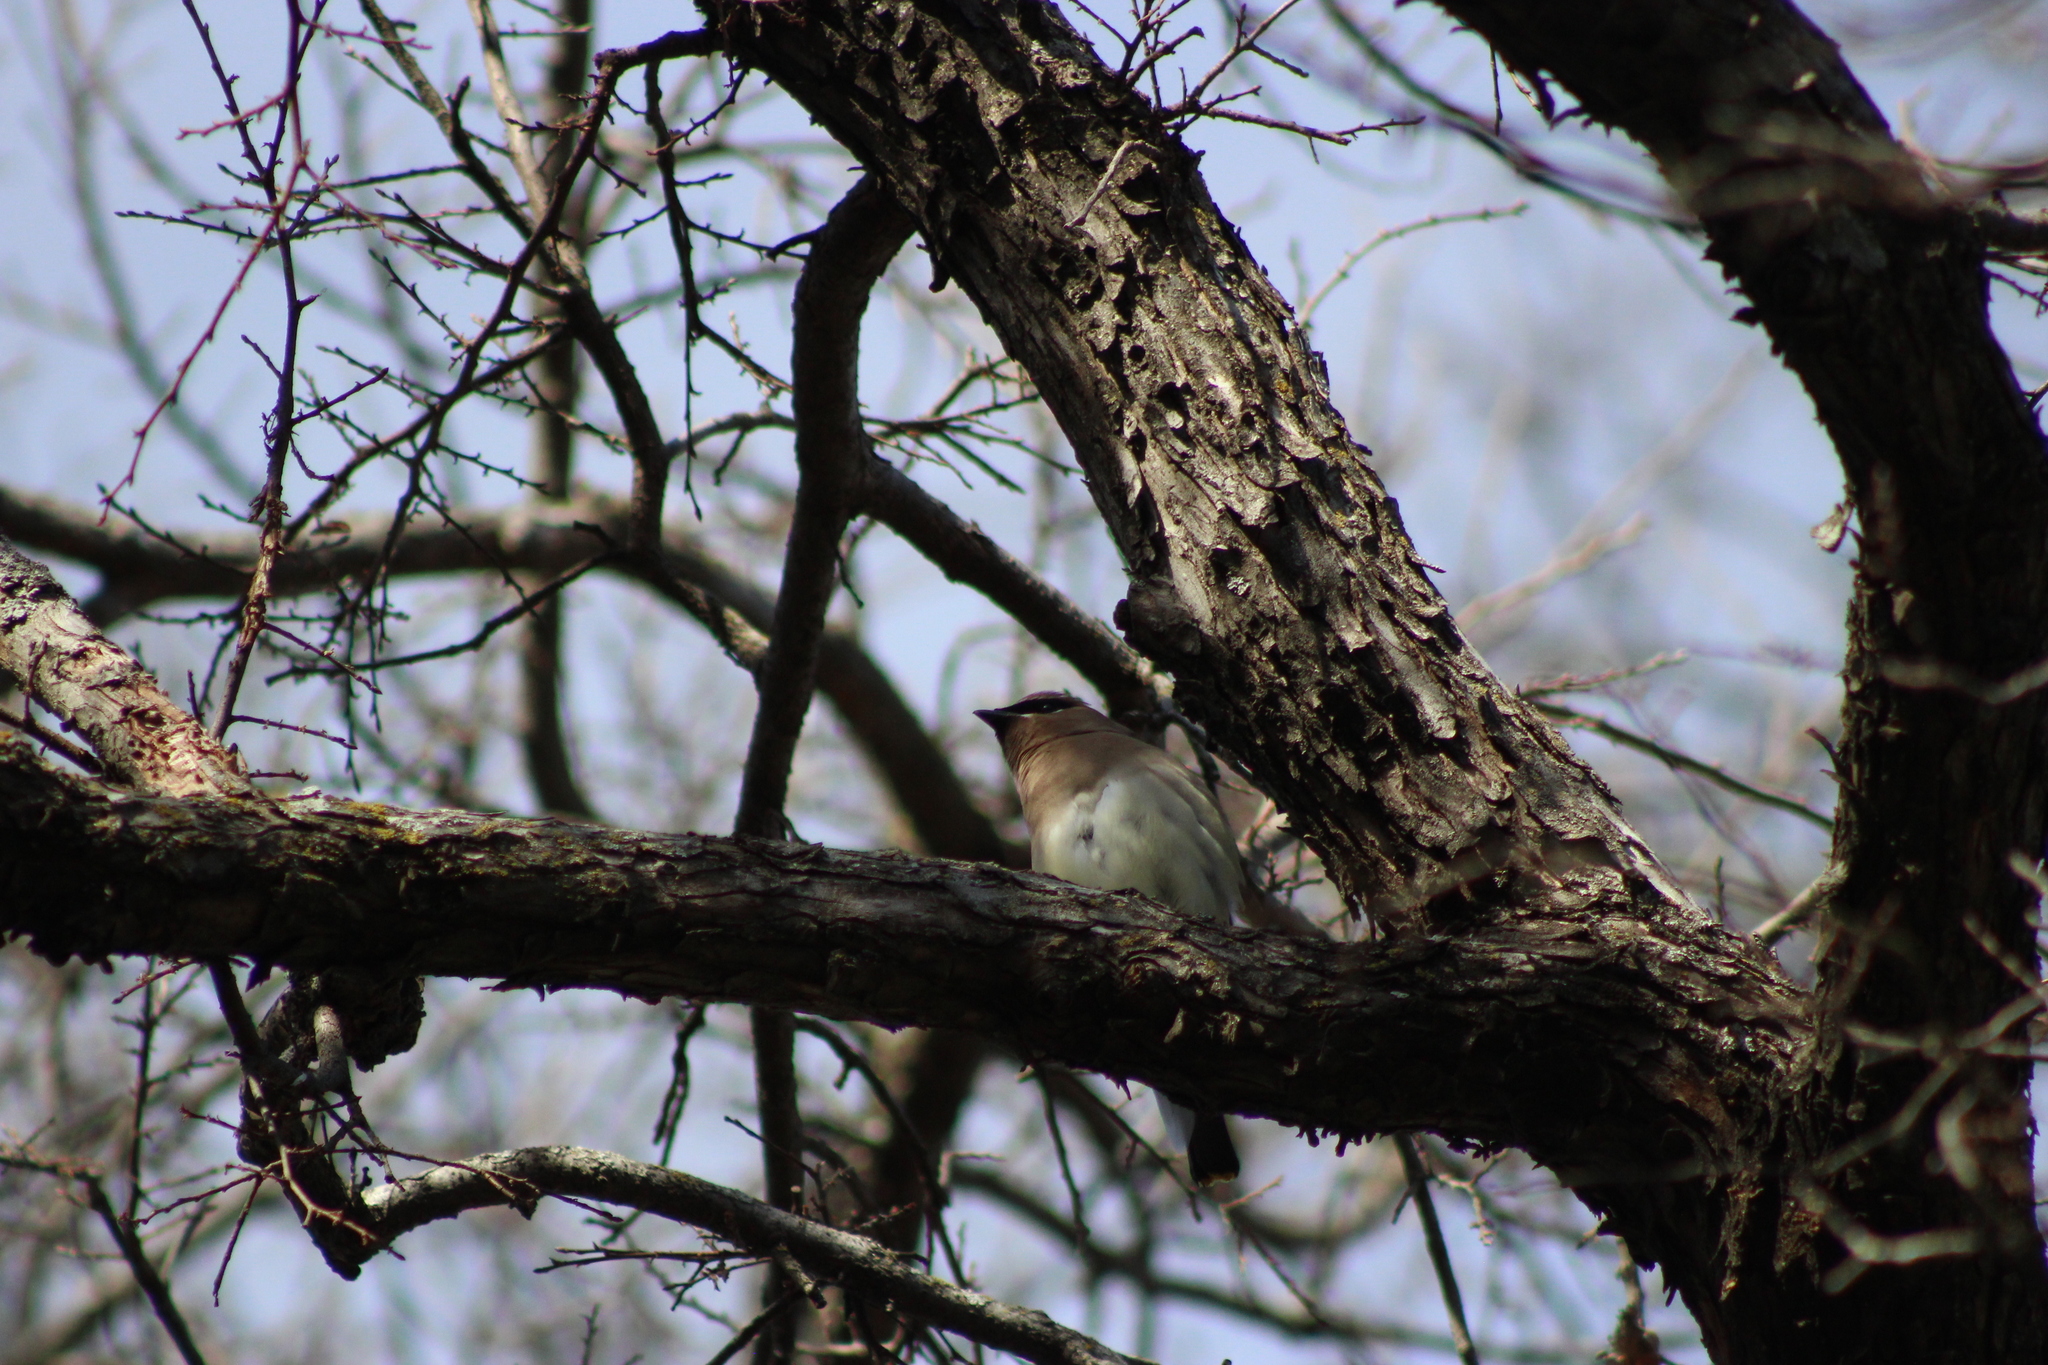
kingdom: Animalia
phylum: Chordata
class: Aves
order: Passeriformes
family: Bombycillidae
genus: Bombycilla
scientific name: Bombycilla cedrorum
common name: Cedar waxwing
